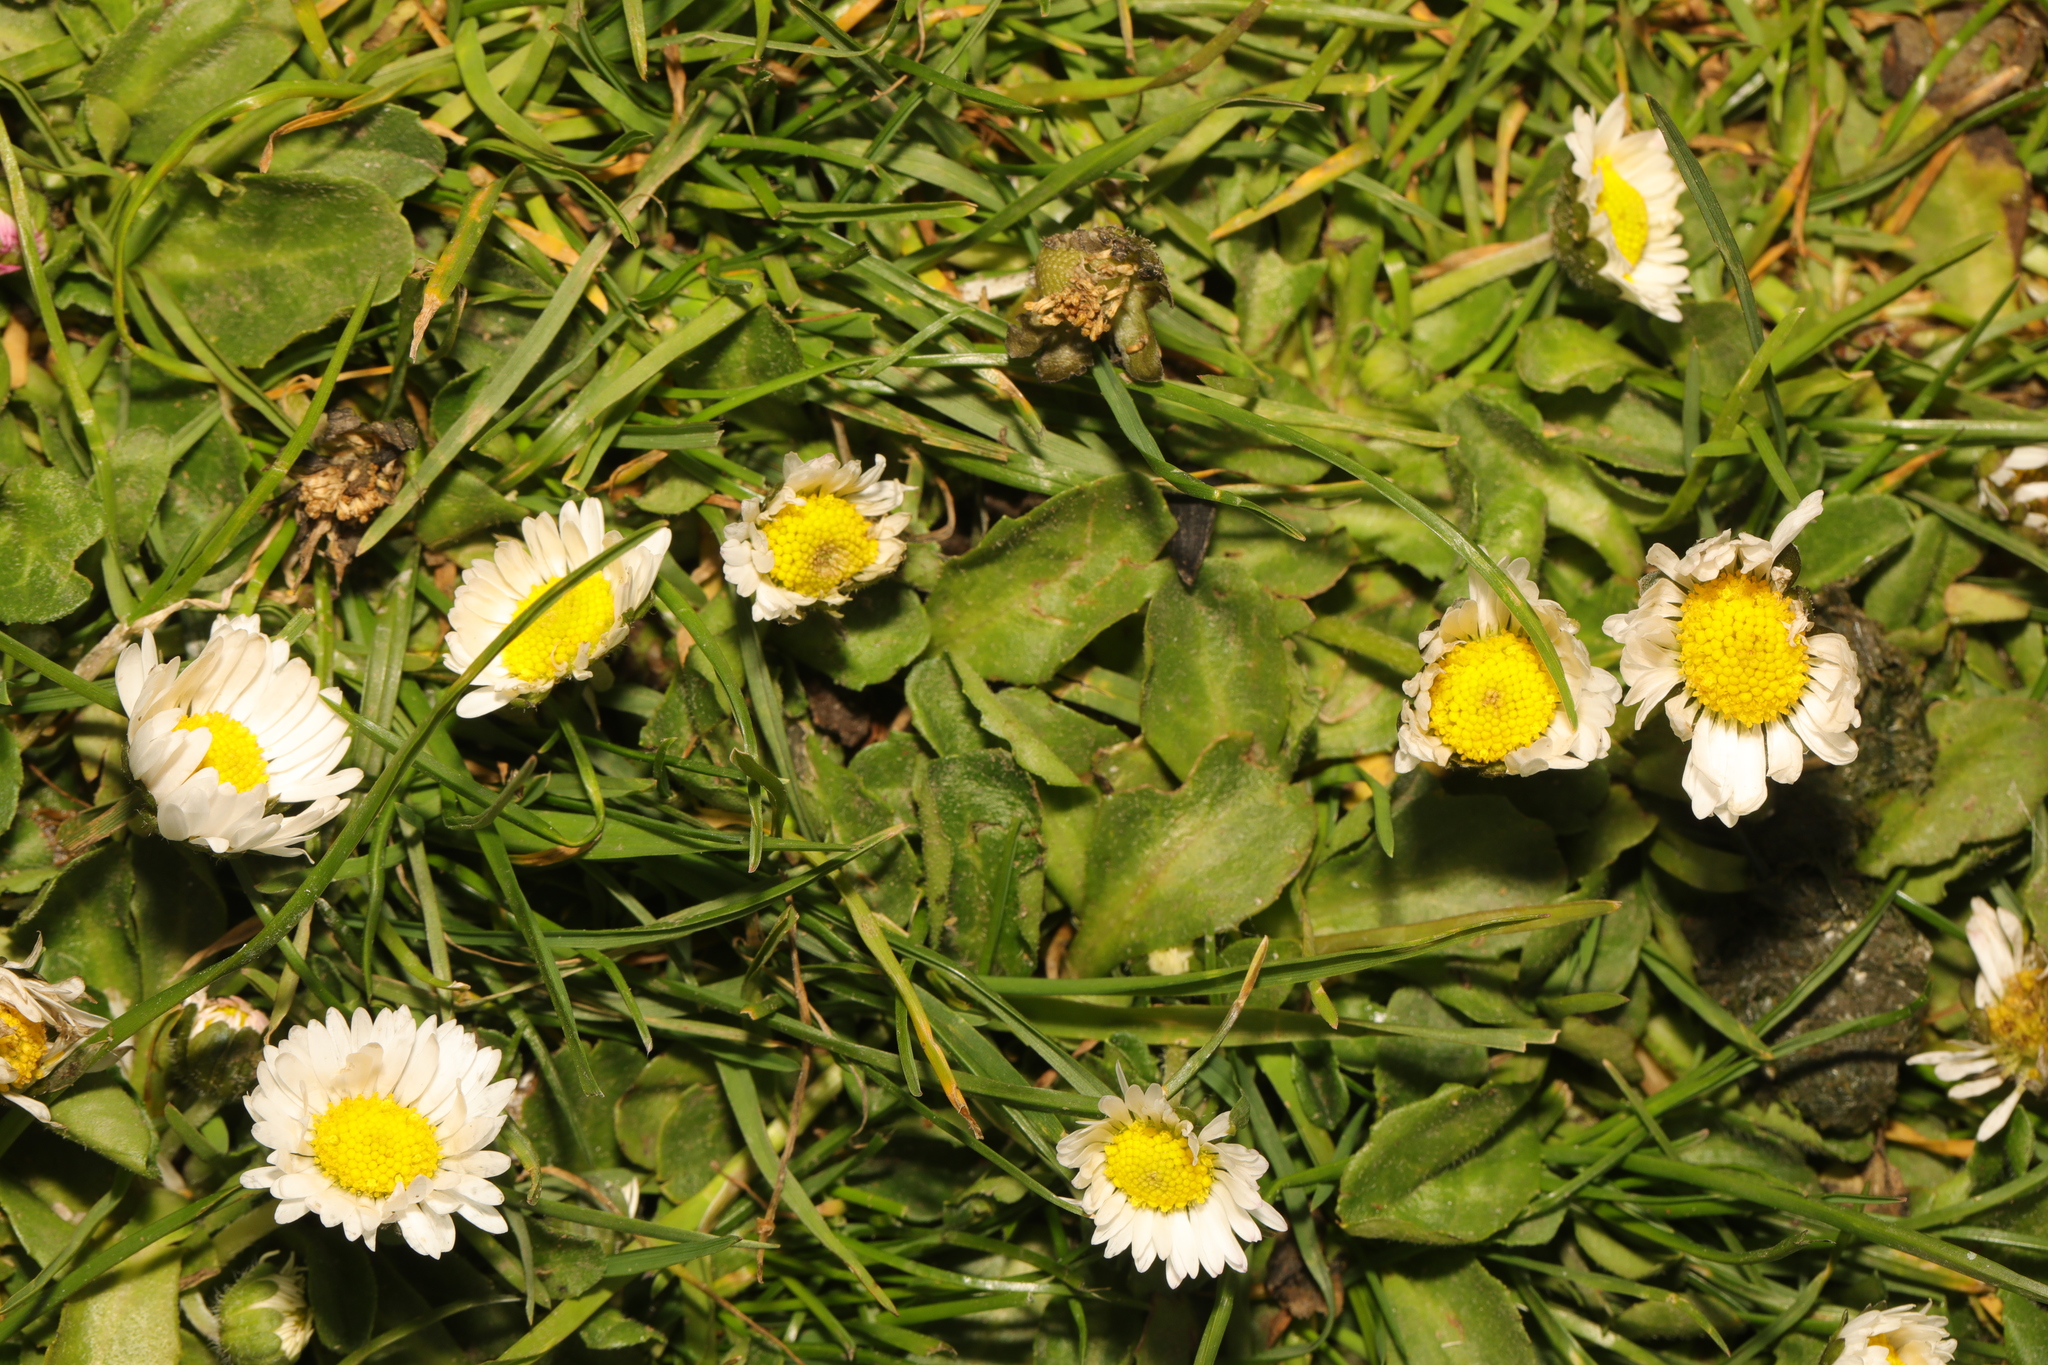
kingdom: Plantae
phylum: Tracheophyta
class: Magnoliopsida
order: Asterales
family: Asteraceae
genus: Bellis
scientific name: Bellis perennis
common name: Lawndaisy
